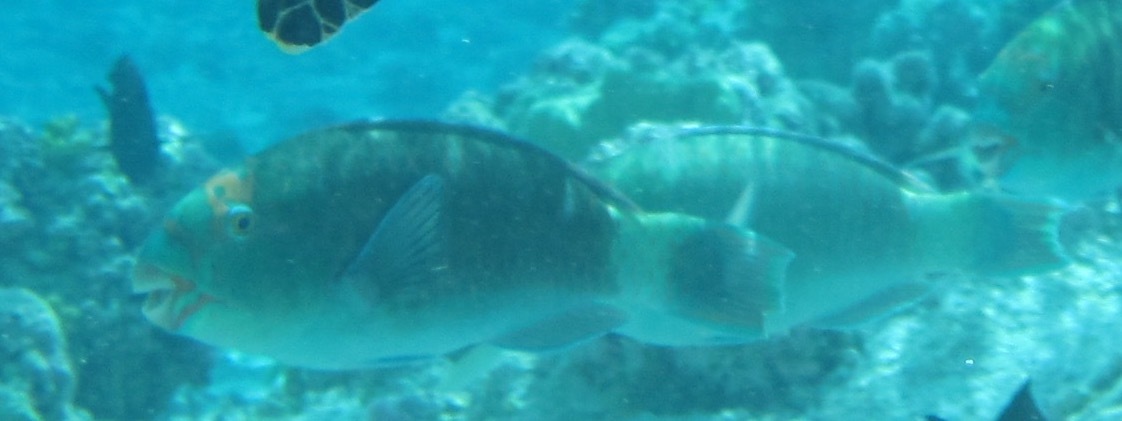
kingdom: Animalia
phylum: Chordata
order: Perciformes
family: Scaridae
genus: Chlorurus
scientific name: Chlorurus frontalis
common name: Reefcrest parrotfish
